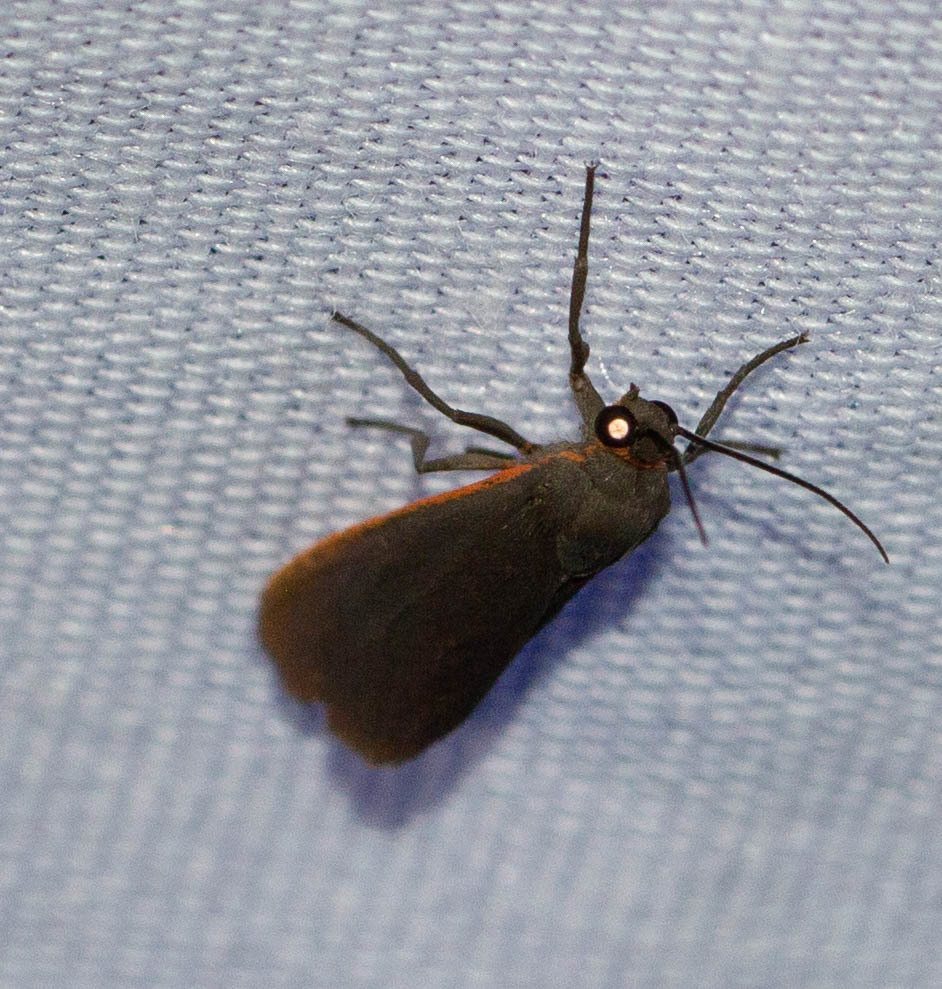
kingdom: Animalia
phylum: Arthropoda
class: Insecta
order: Lepidoptera
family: Erebidae
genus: Virbia
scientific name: Virbia laeta
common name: Joyful holomelina moth
